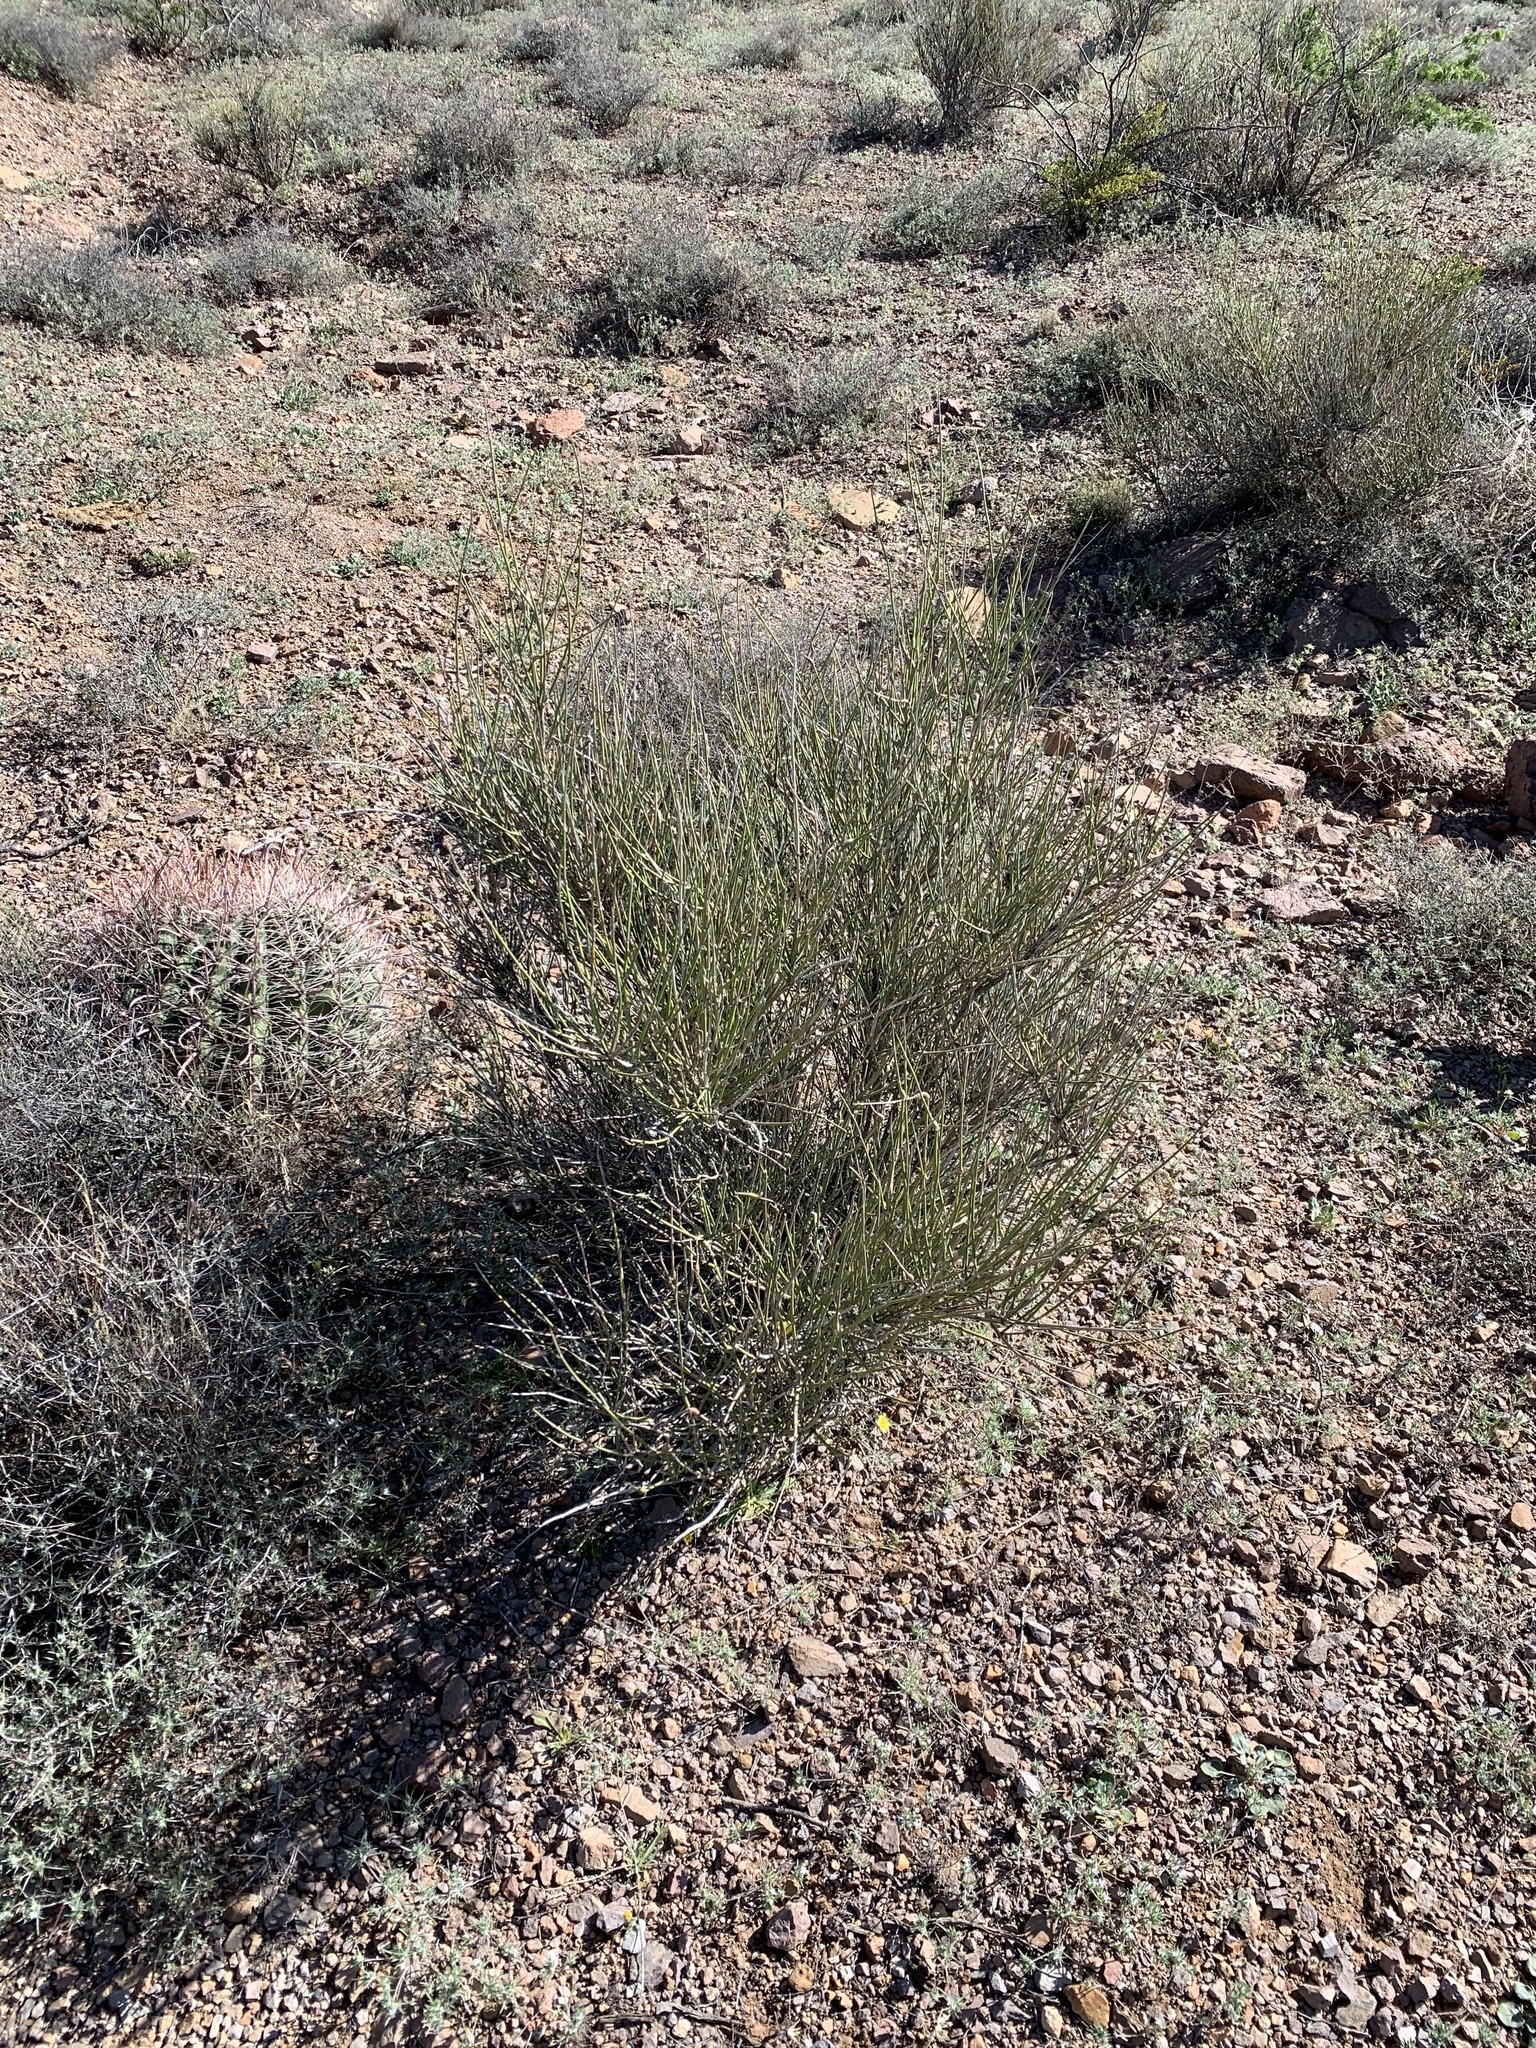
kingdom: Plantae
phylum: Tracheophyta
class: Gnetopsida
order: Ephedrales
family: Ephedraceae
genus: Ephedra
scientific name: Ephedra trifurca
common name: Mexican-tea
